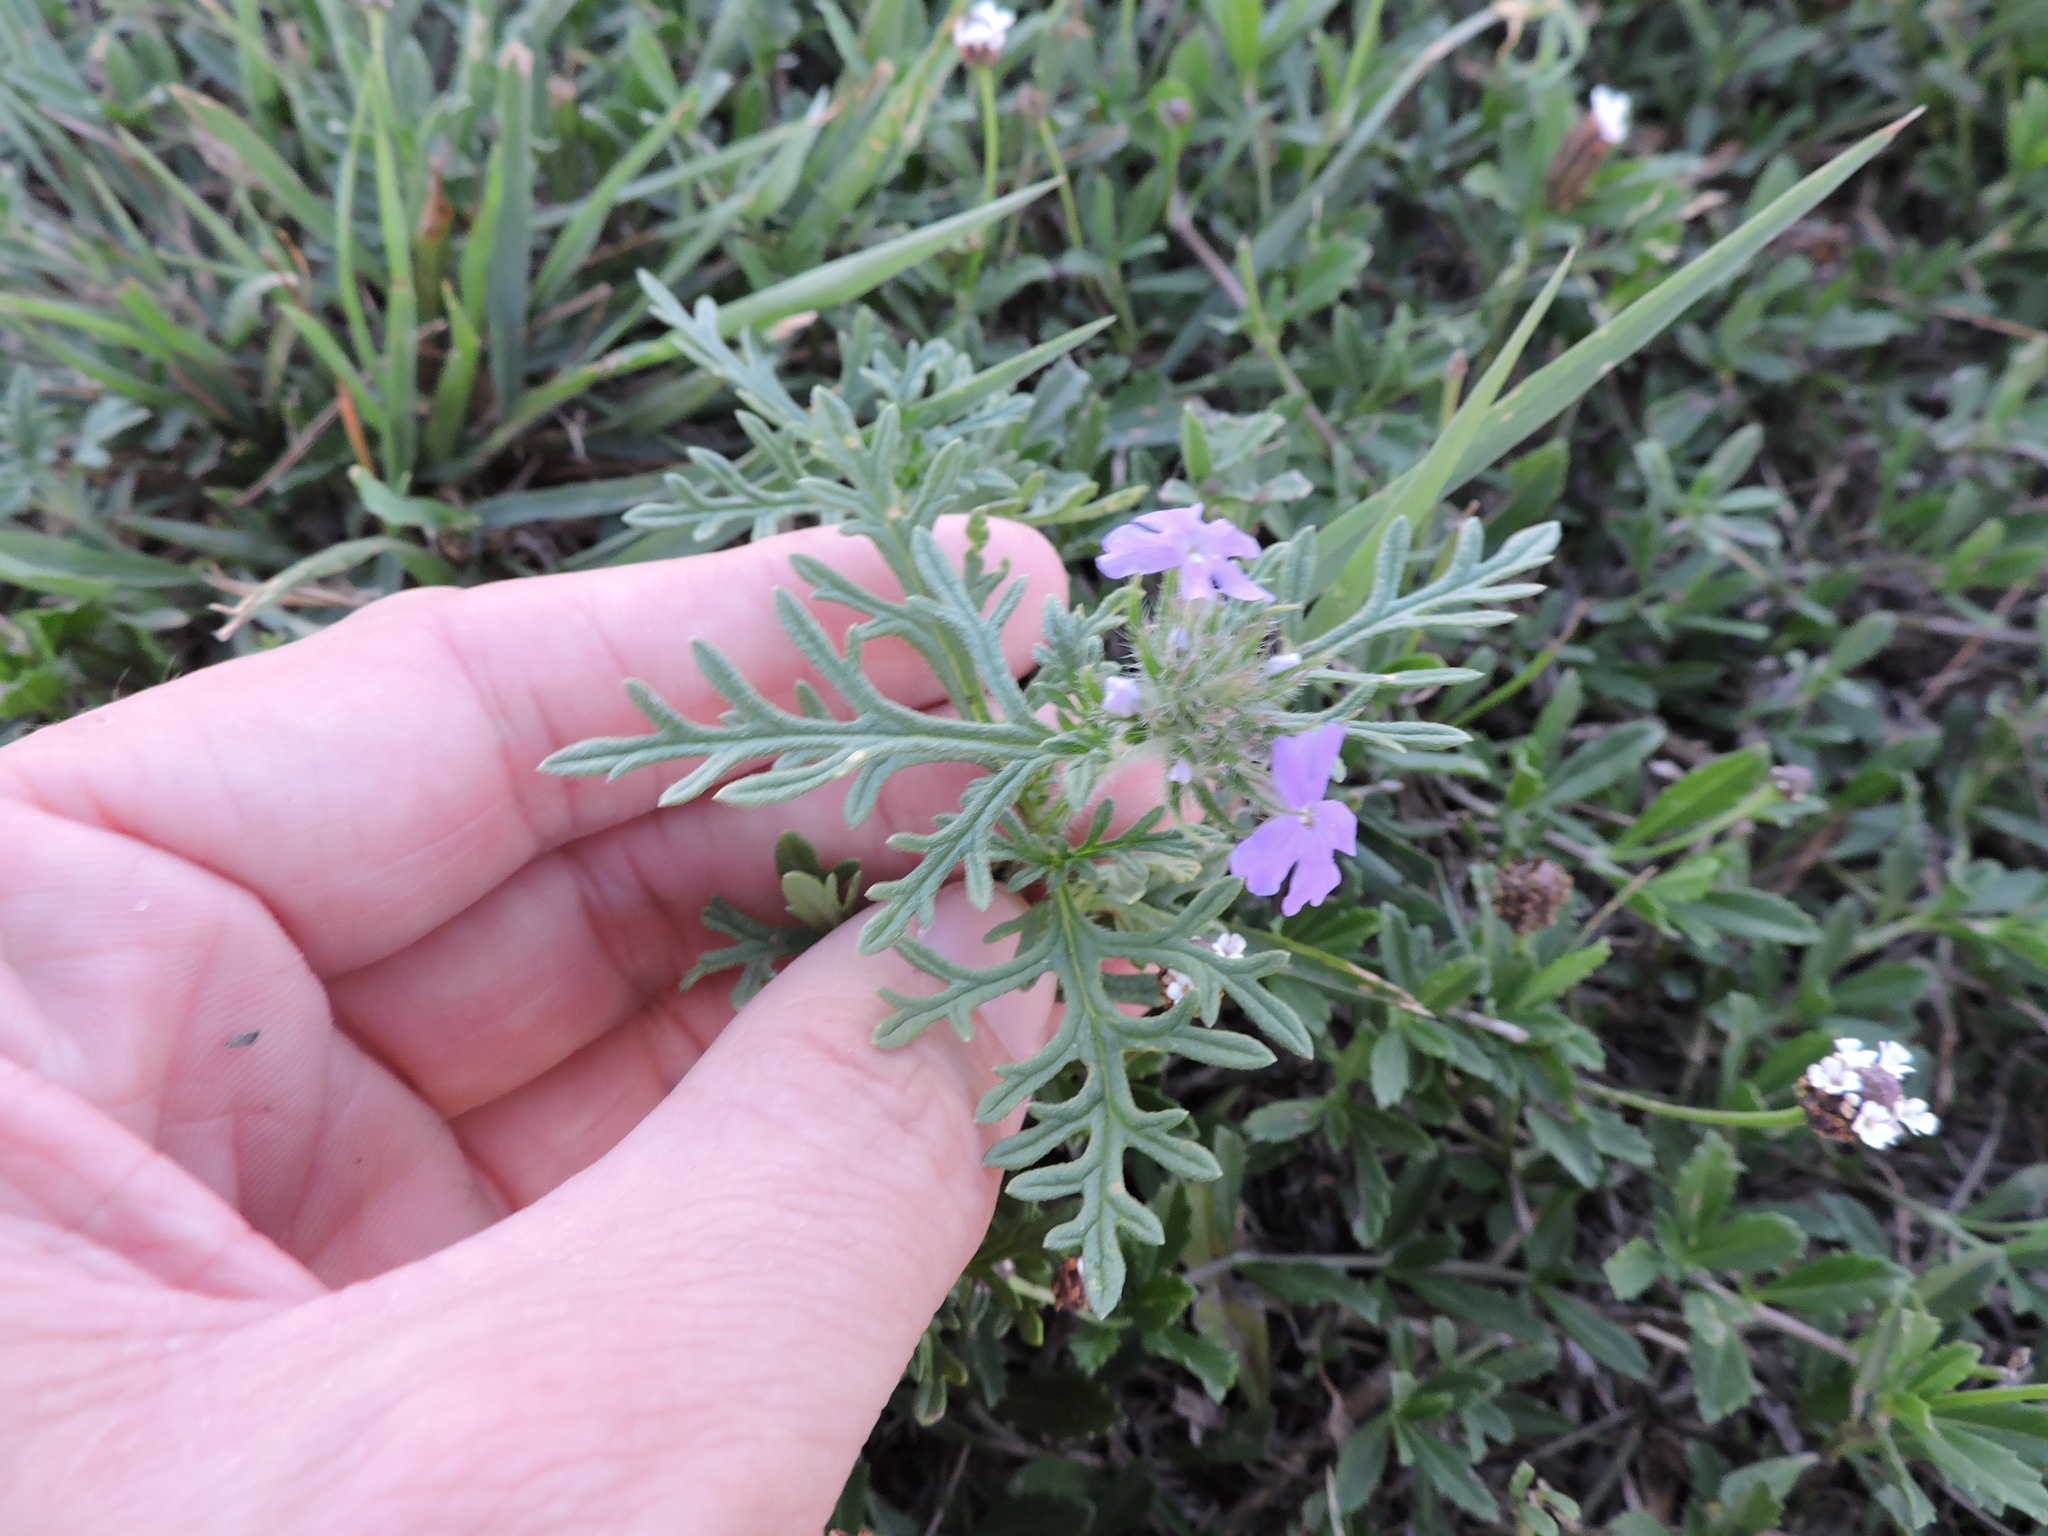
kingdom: Plantae
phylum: Tracheophyta
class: Magnoliopsida
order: Lamiales
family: Verbenaceae
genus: Verbena
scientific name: Verbena bipinnatifida
